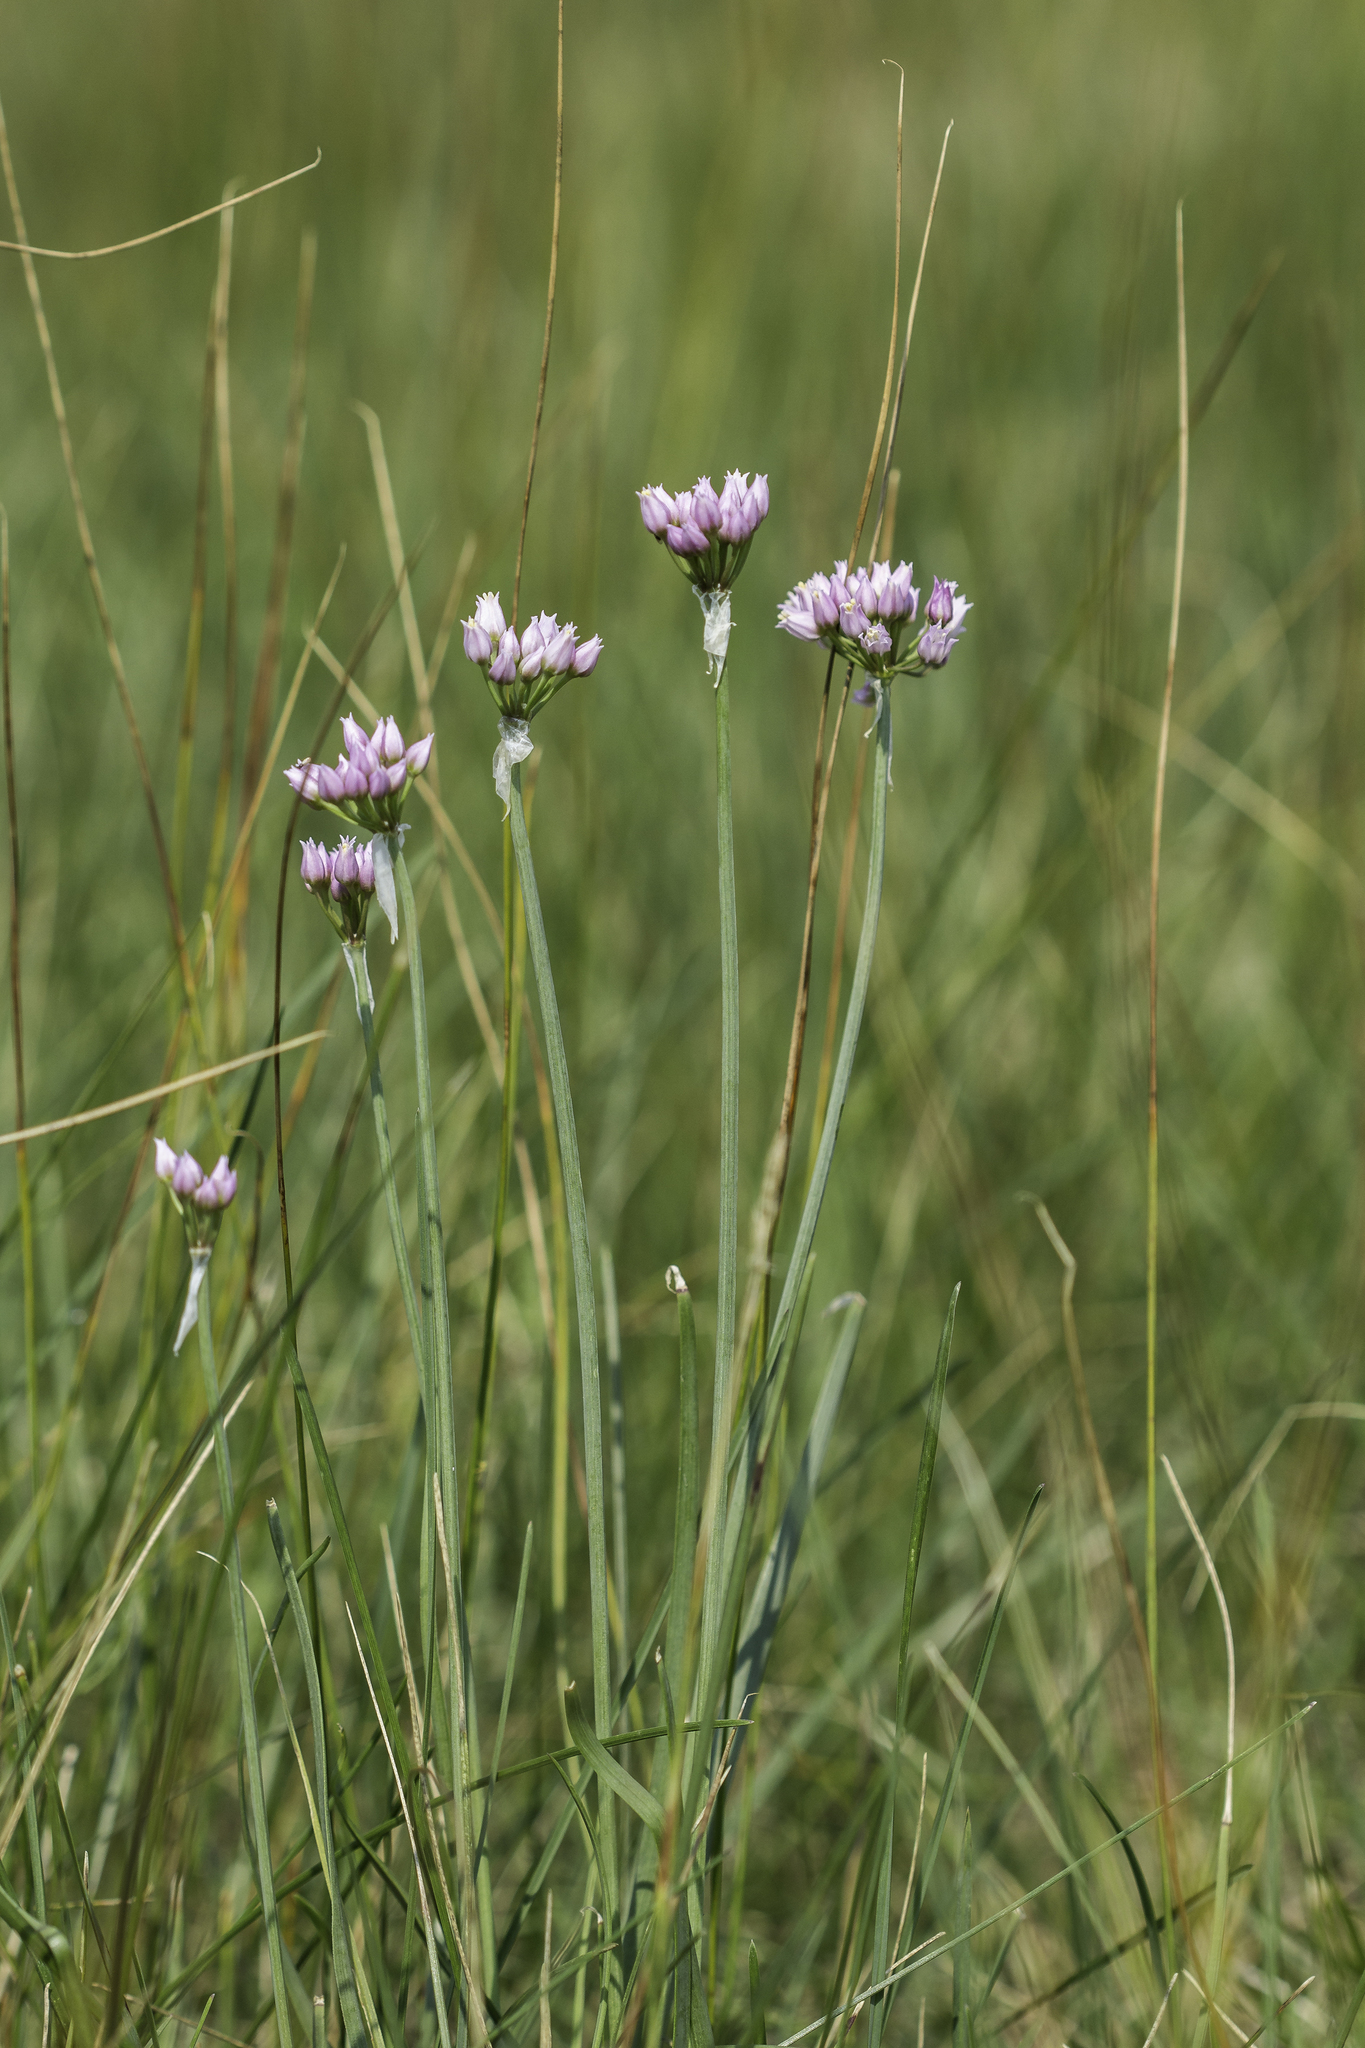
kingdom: Plantae
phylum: Tracheophyta
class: Liliopsida
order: Asparagales
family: Amaryllidaceae
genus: Allium
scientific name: Allium geyeri
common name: Geyer's onion
